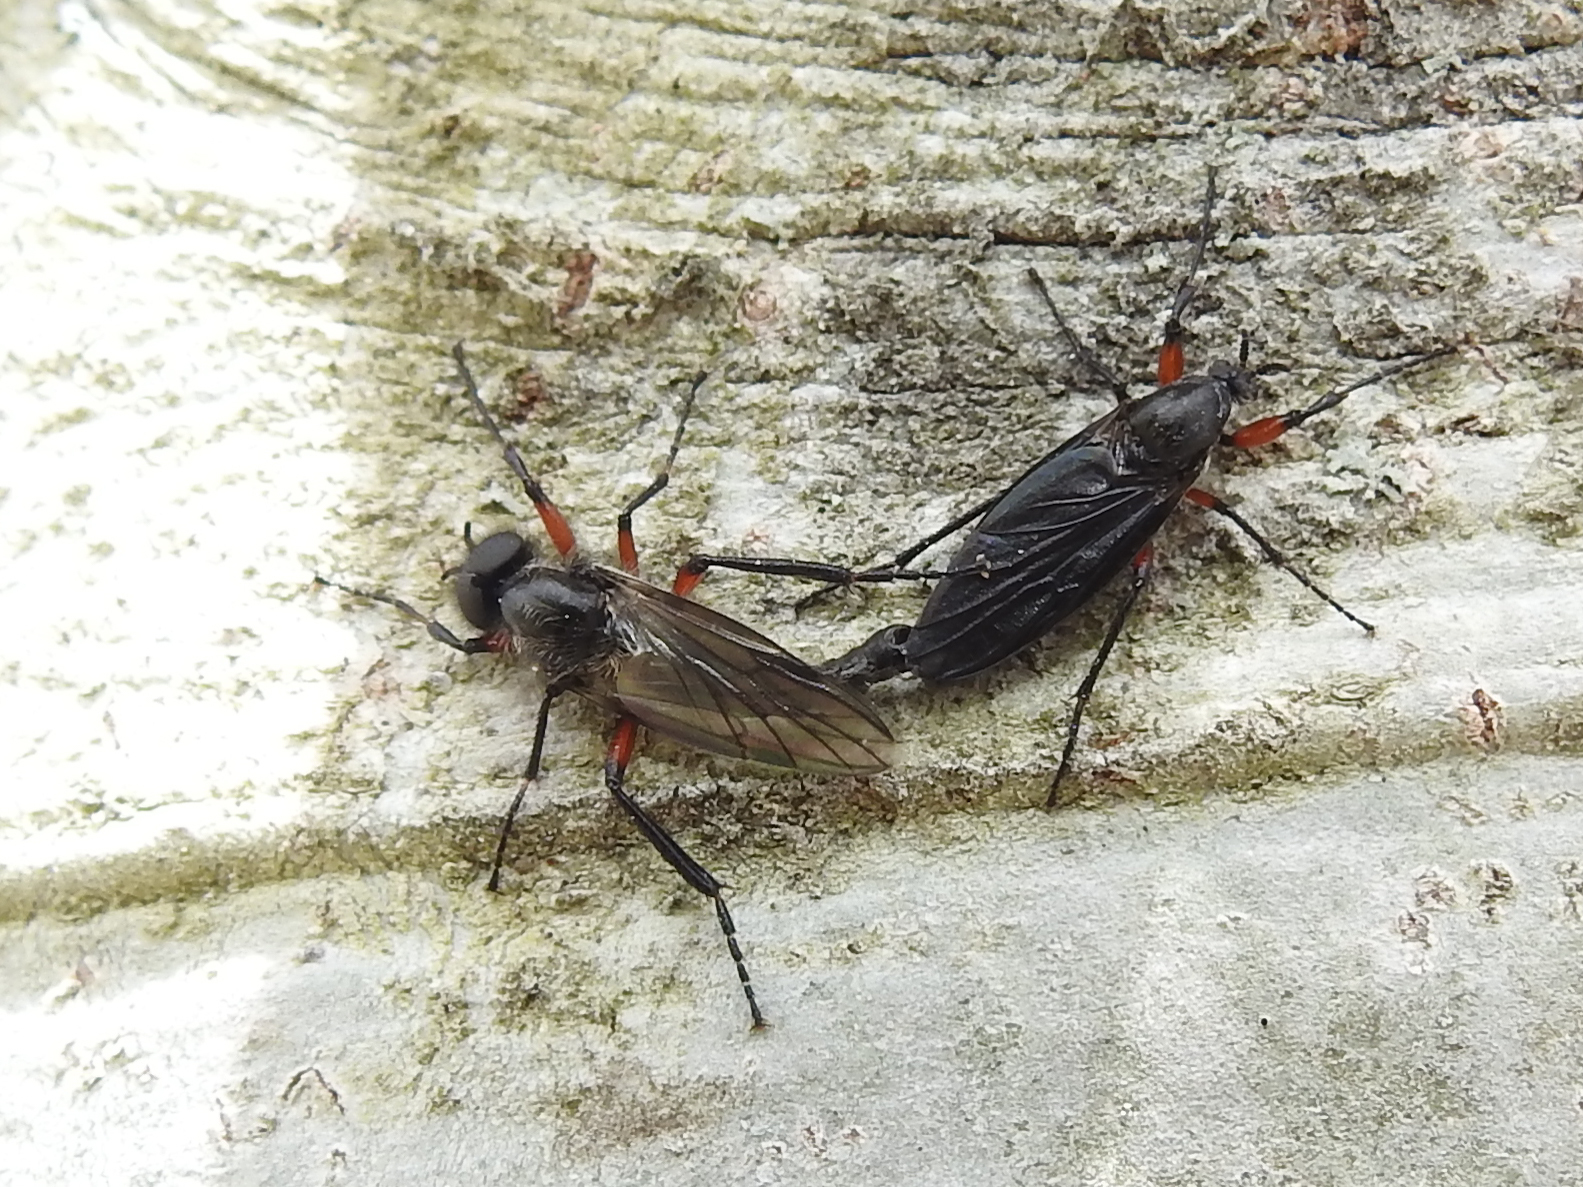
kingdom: Animalia
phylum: Arthropoda
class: Insecta
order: Diptera
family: Bibionidae
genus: Bibio
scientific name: Bibio femoratus
